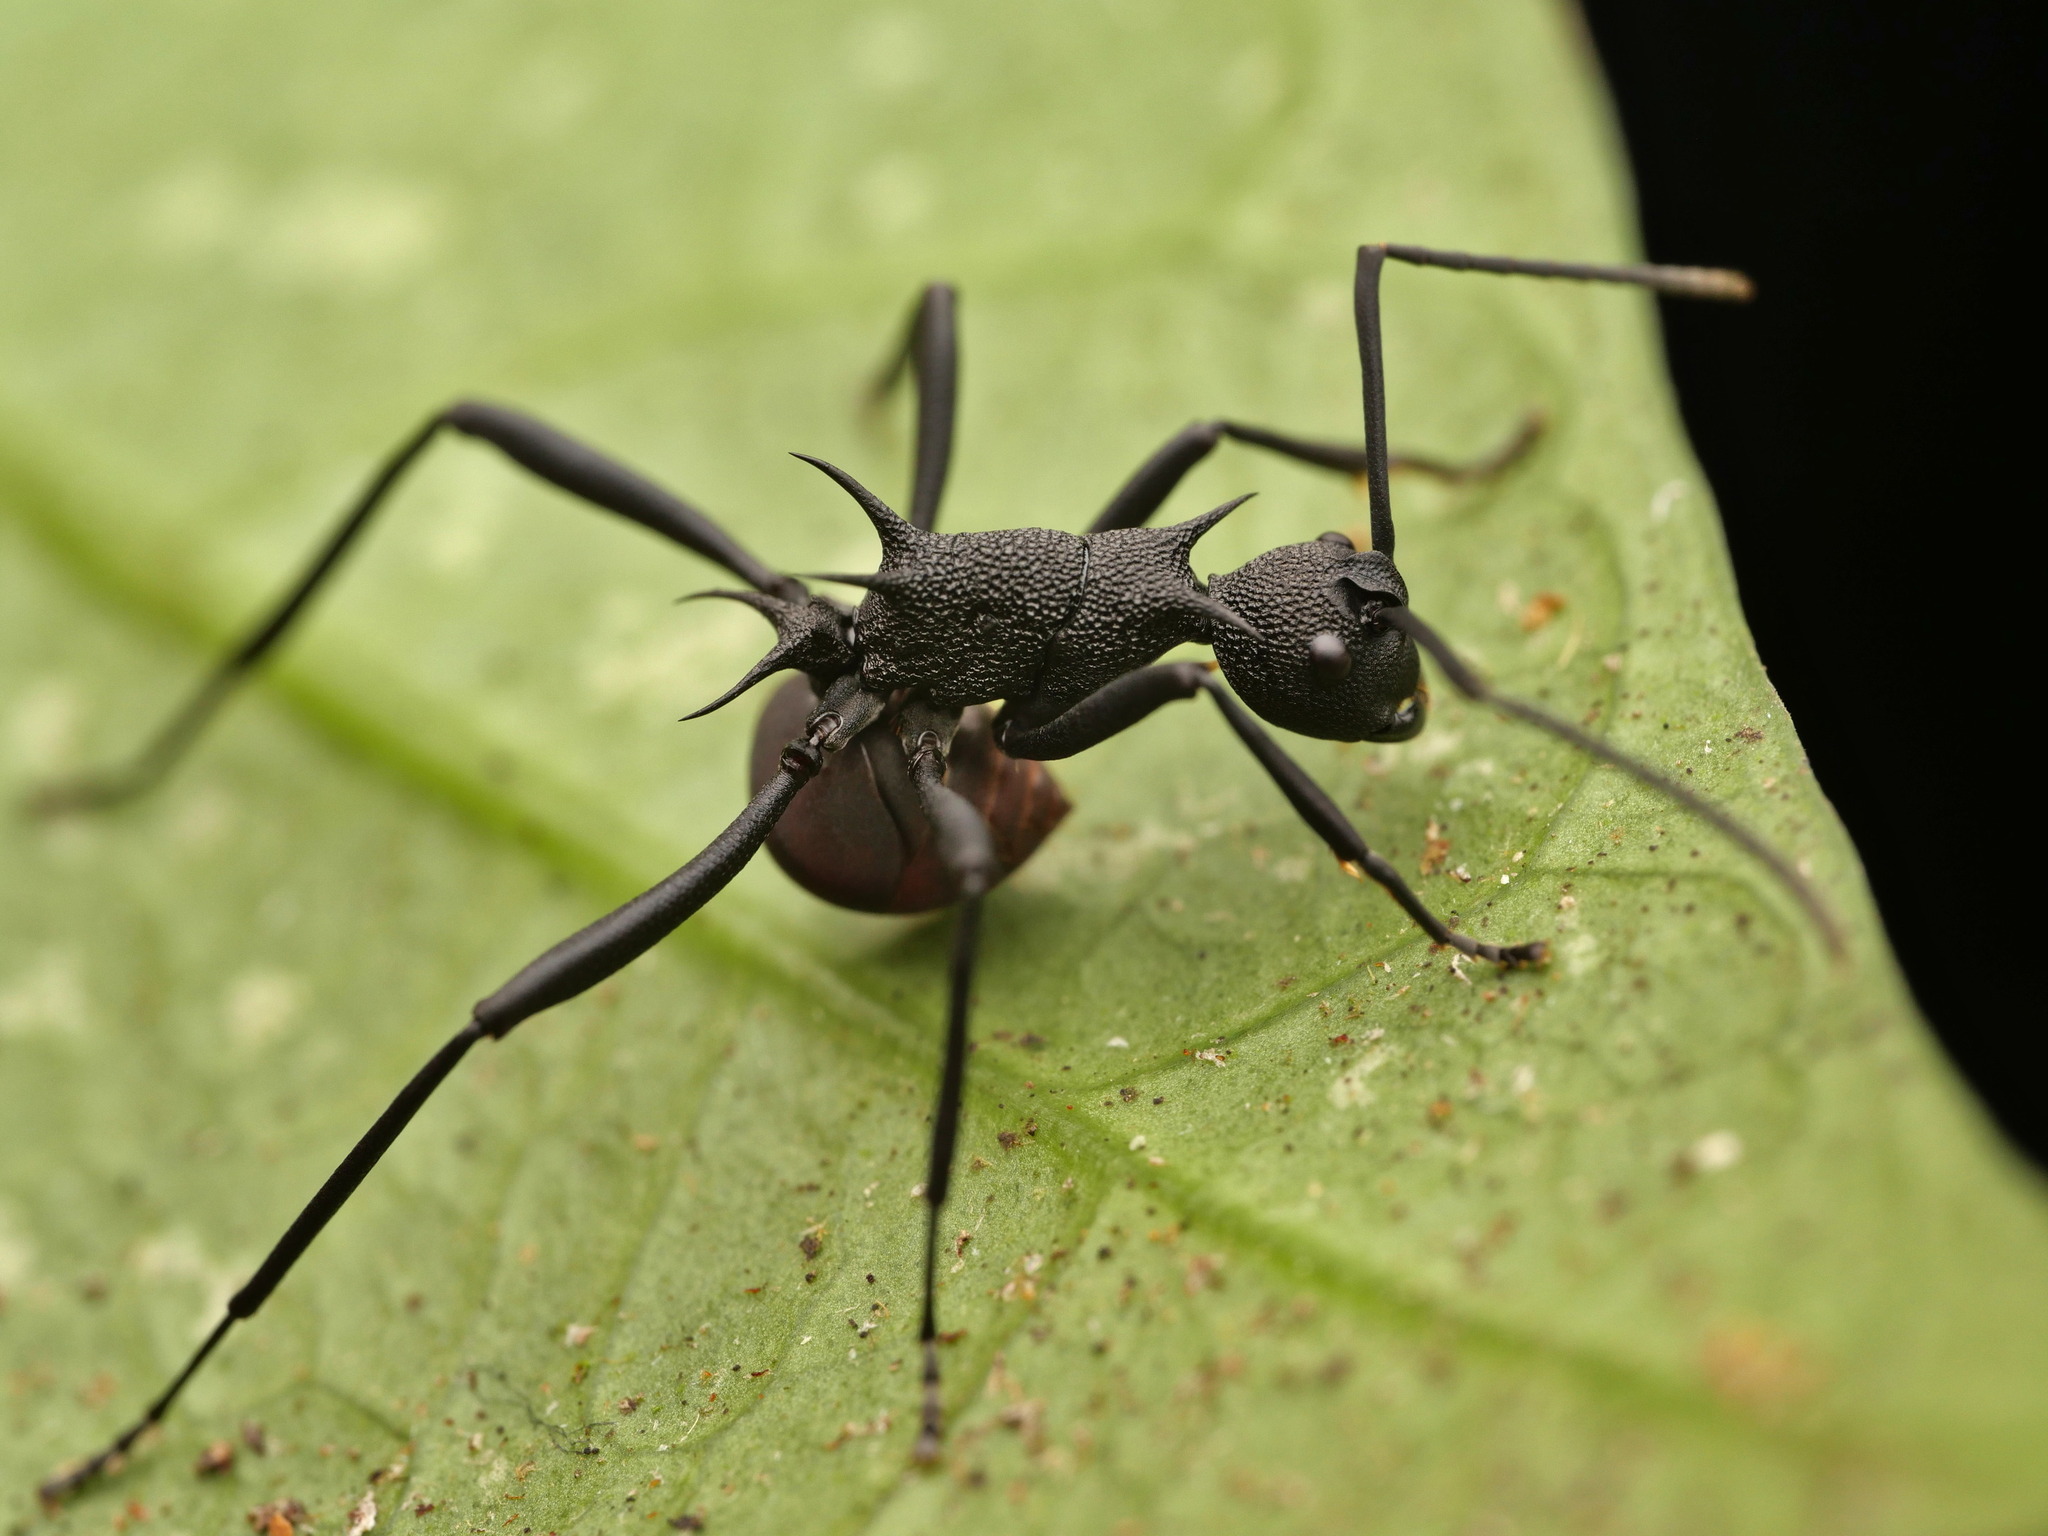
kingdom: Animalia
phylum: Arthropoda
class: Insecta
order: Hymenoptera
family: Formicidae
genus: Polyrhachis
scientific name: Polyrhachis armata
